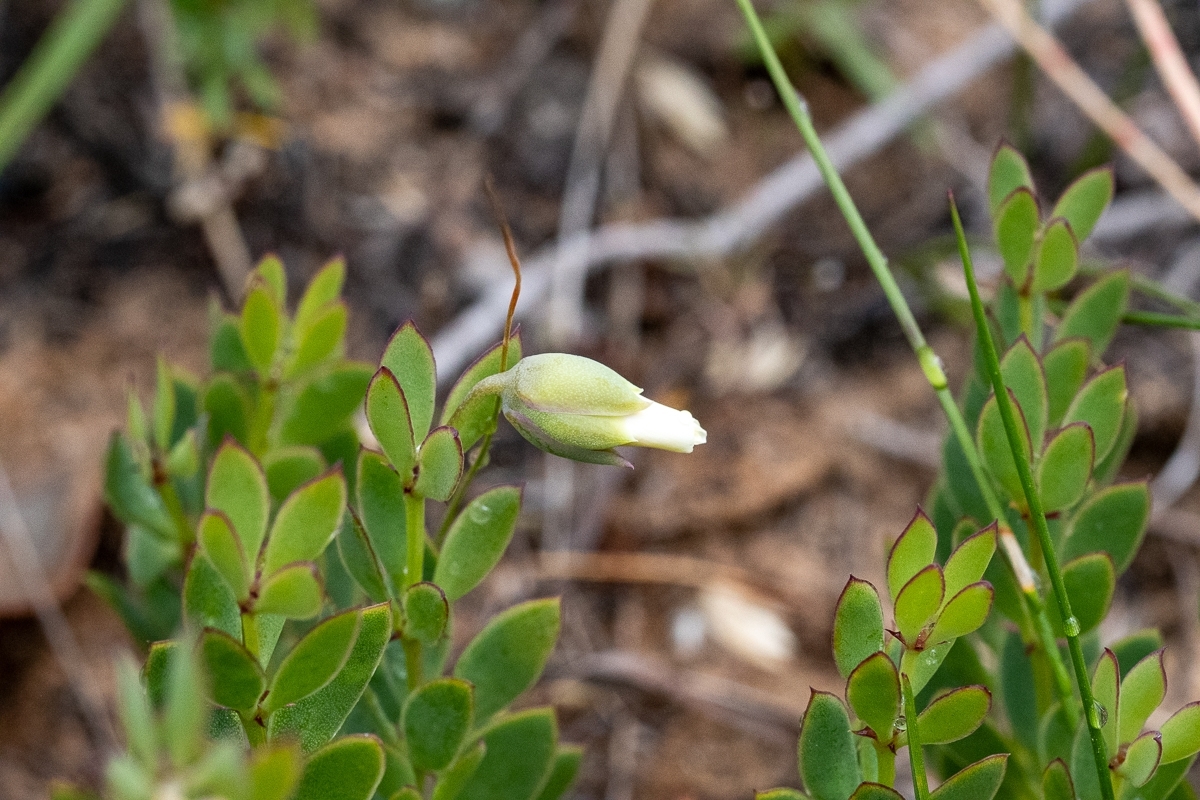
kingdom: Plantae
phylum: Tracheophyta
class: Magnoliopsida
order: Zygophyllales
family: Zygophyllaceae
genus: Roepera
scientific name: Roepera fulva
